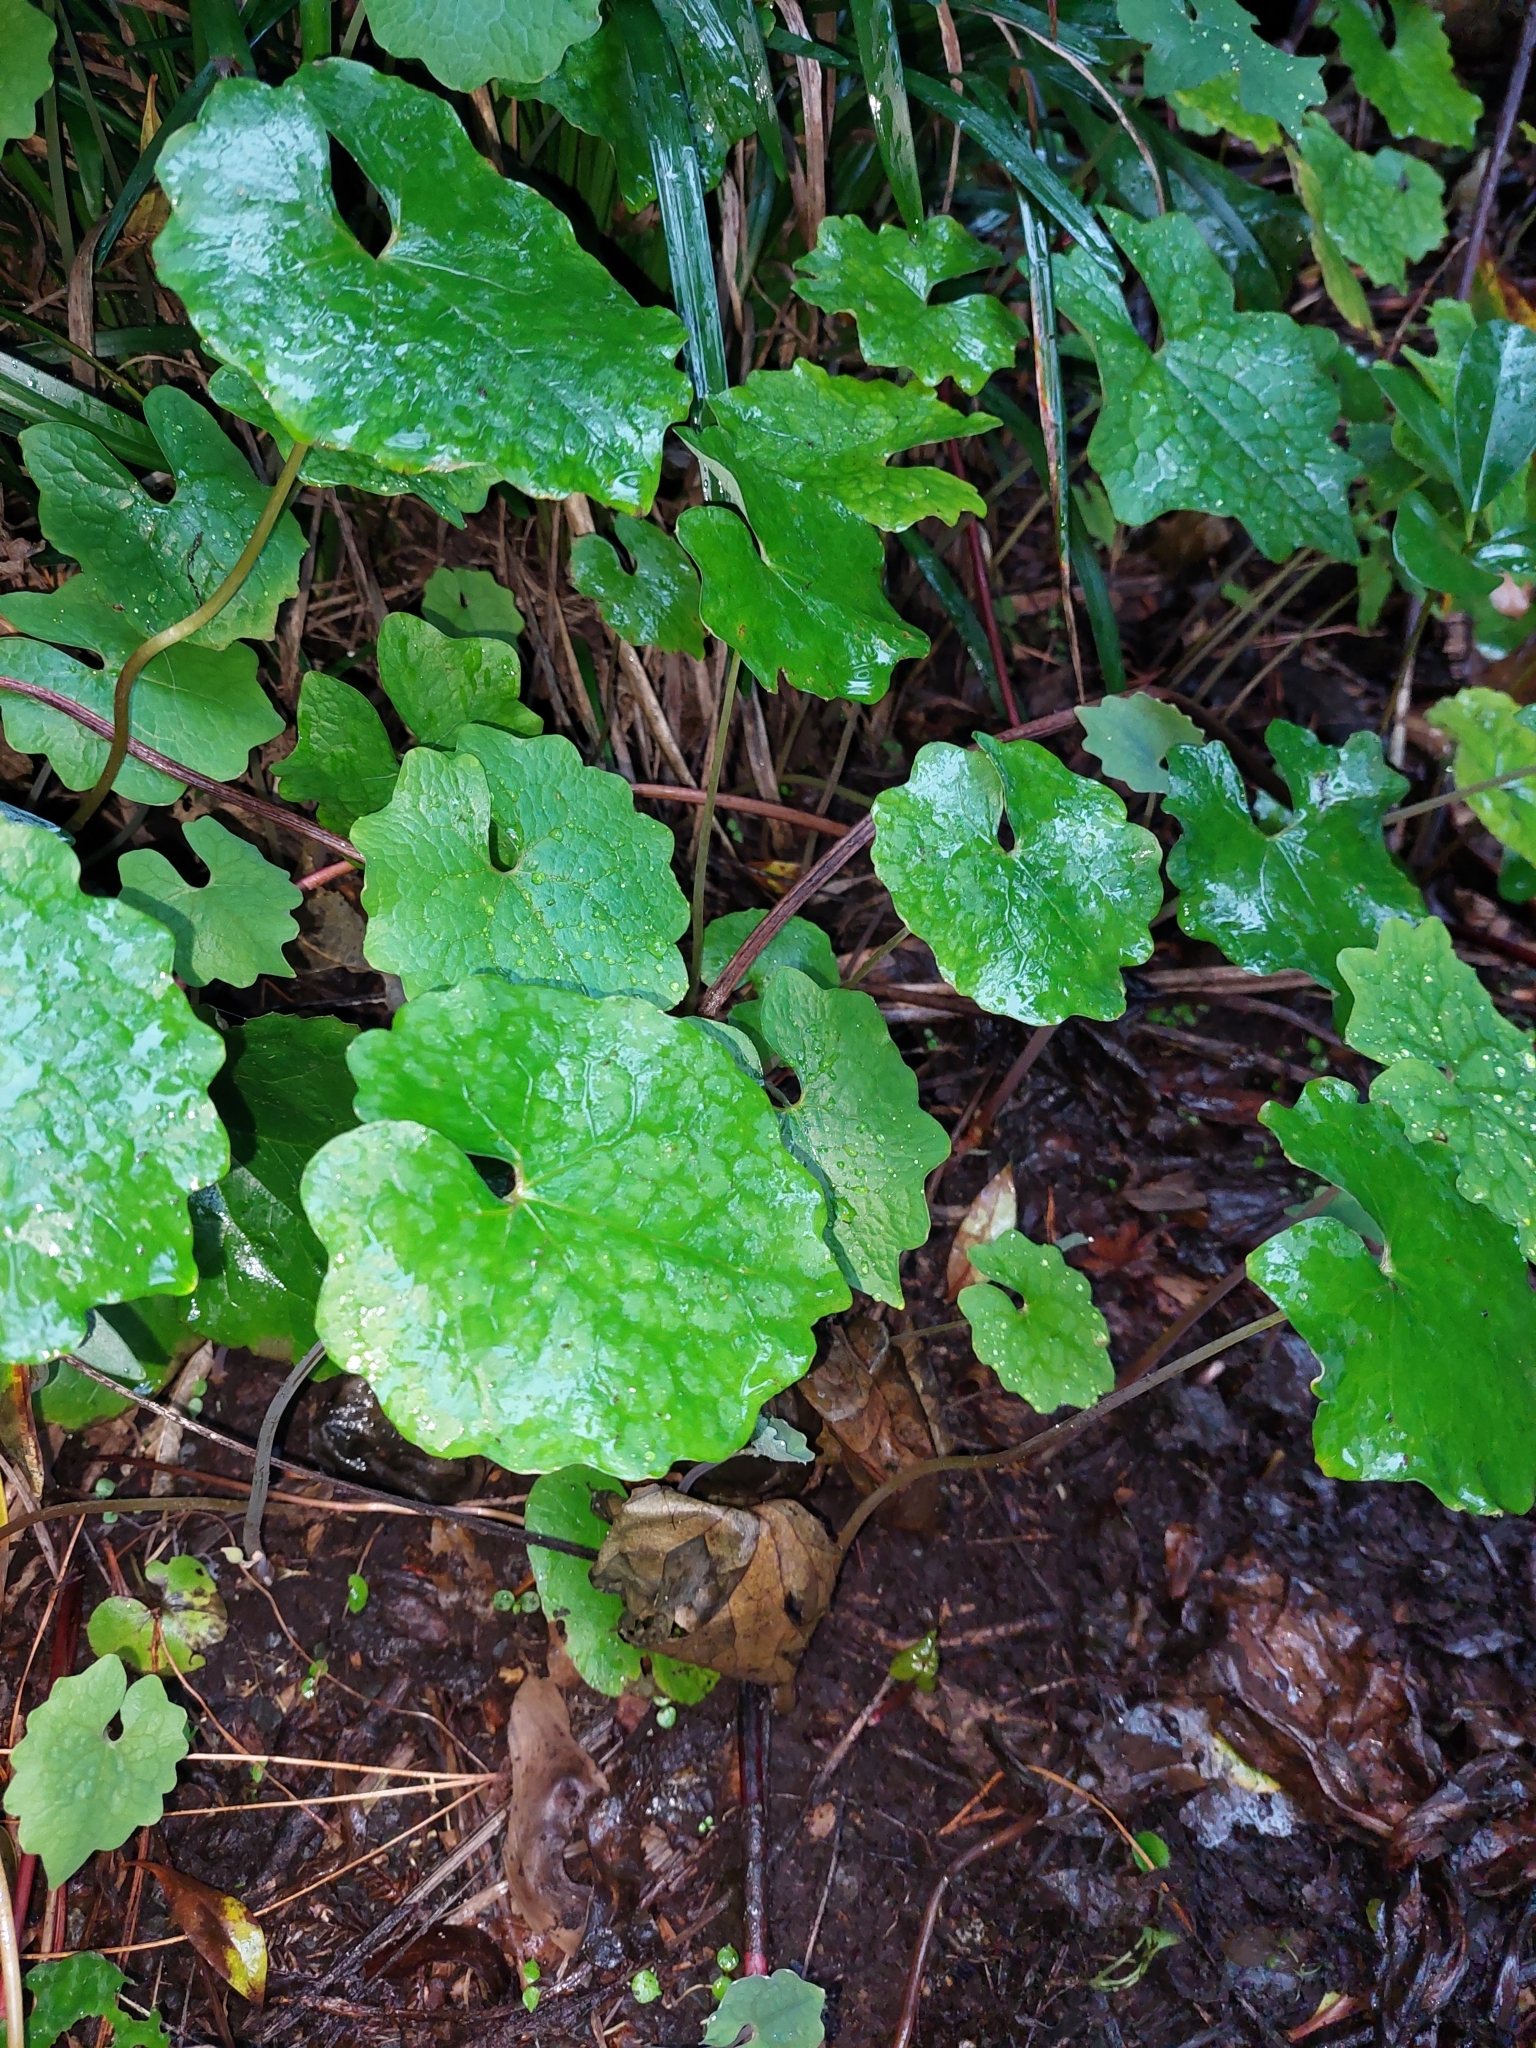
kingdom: Plantae
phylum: Tracheophyta
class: Magnoliopsida
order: Asterales
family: Asteraceae
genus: Roldana
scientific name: Roldana petasitis
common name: California-geranium
